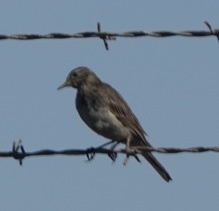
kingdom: Animalia
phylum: Chordata
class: Aves
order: Passeriformes
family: Motacillidae
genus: Anthus
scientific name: Anthus rubescens
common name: Buff-bellied pipit
